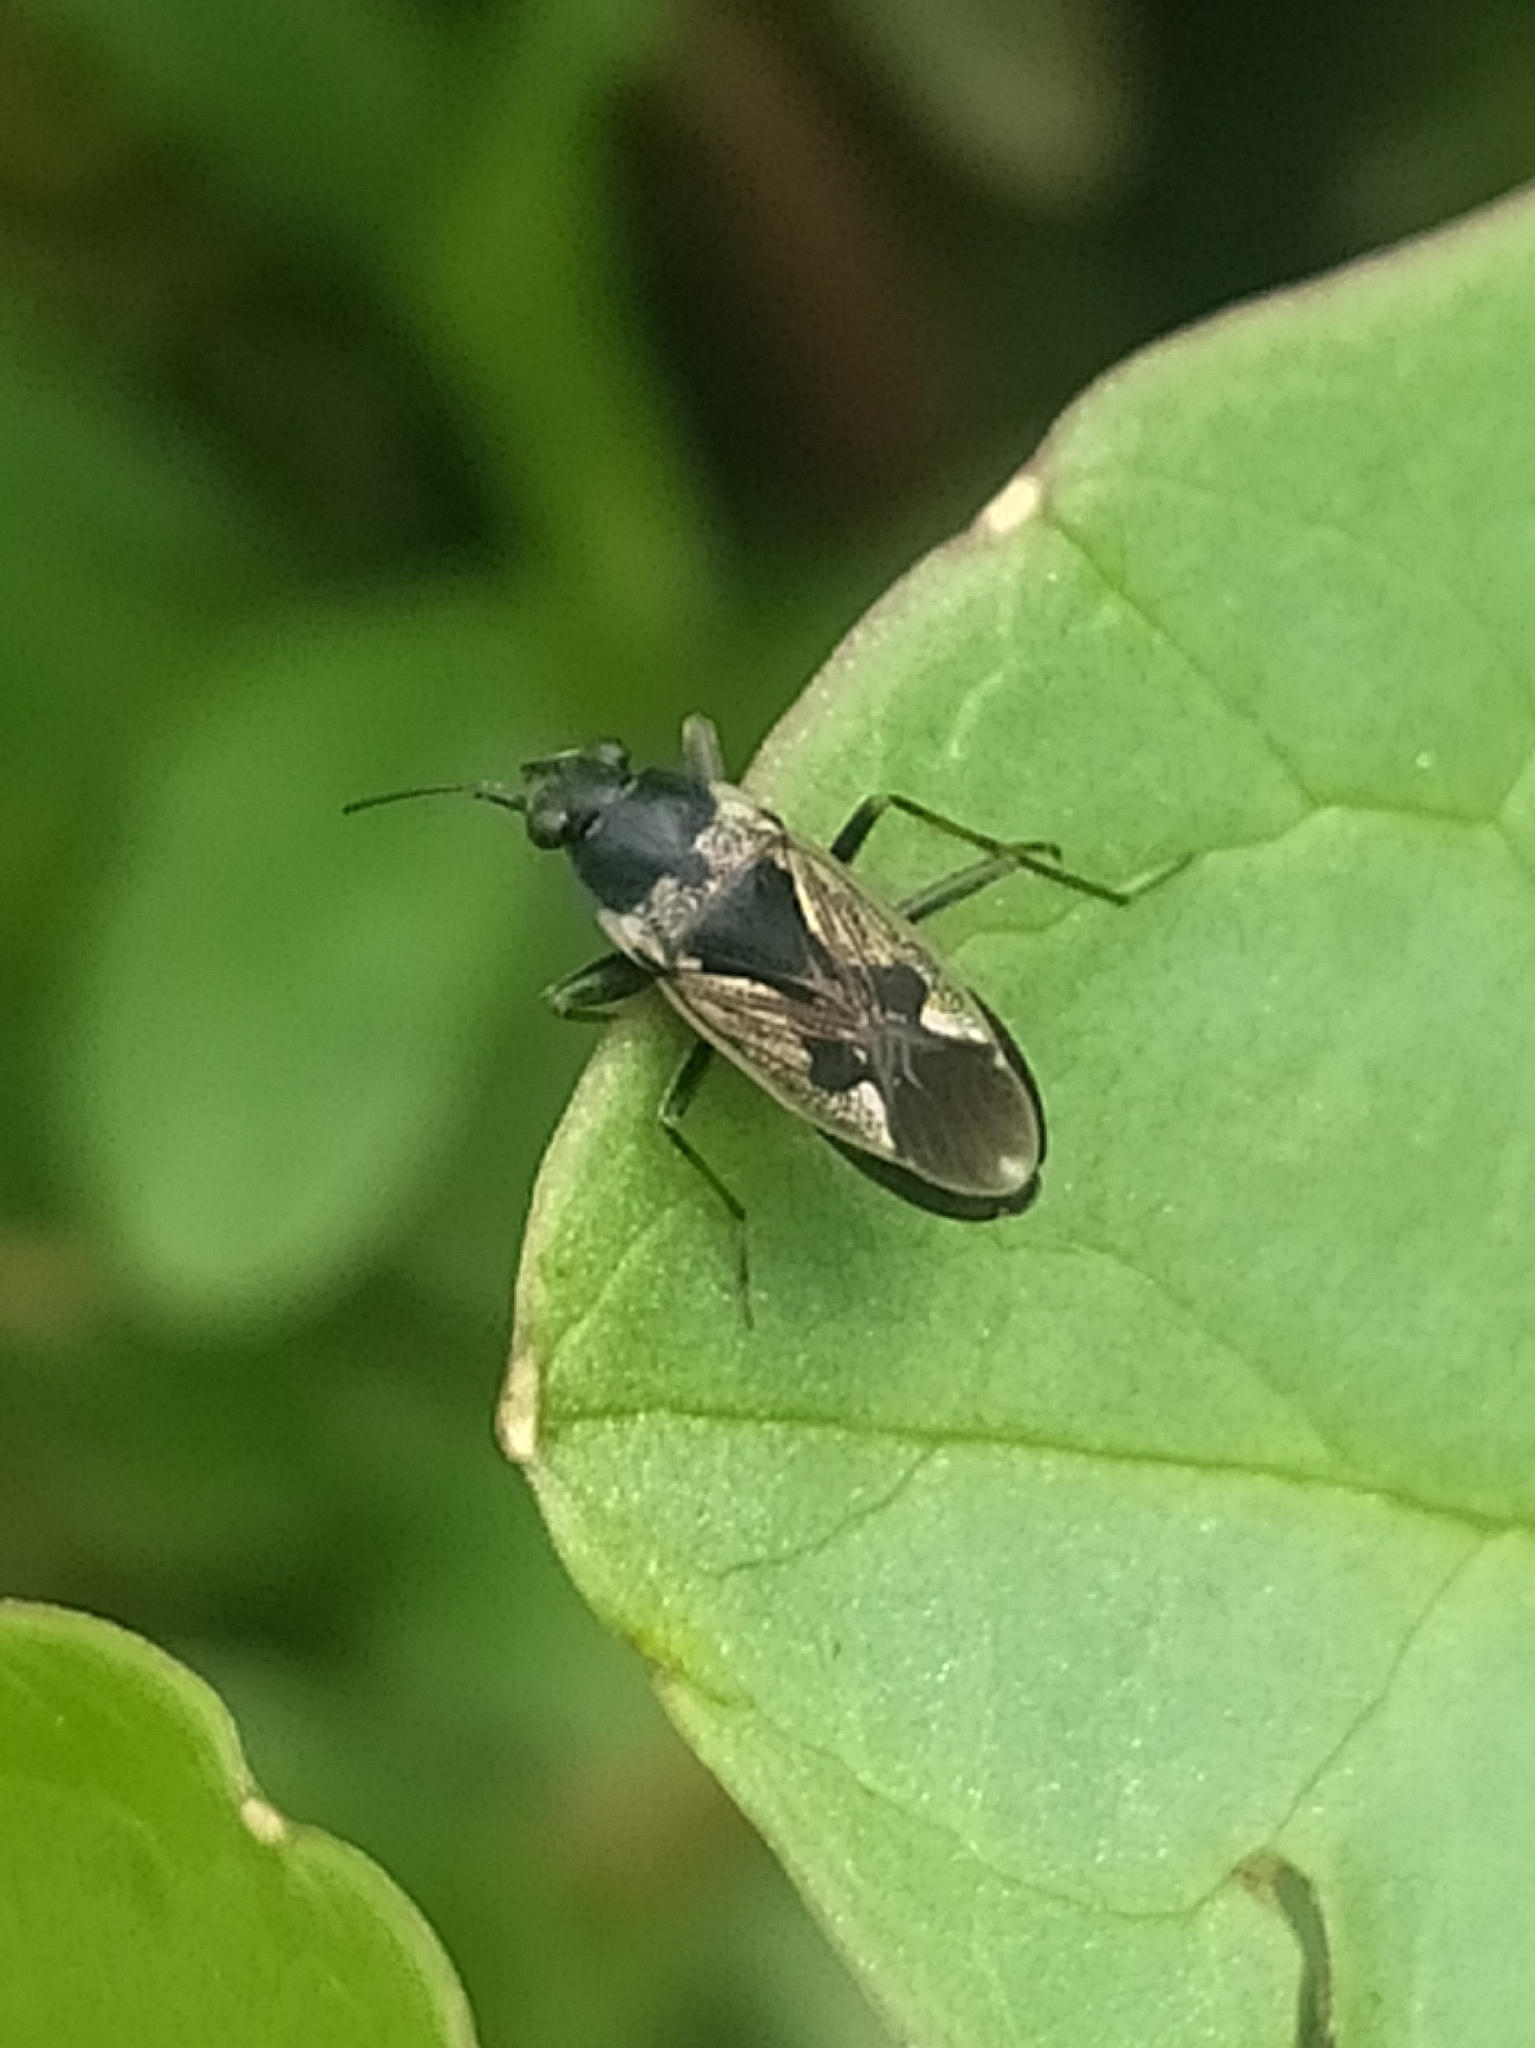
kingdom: Animalia
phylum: Arthropoda
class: Insecta
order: Hemiptera
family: Rhyparochromidae
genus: Rhyparochromus
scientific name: Rhyparochromus vulgaris
